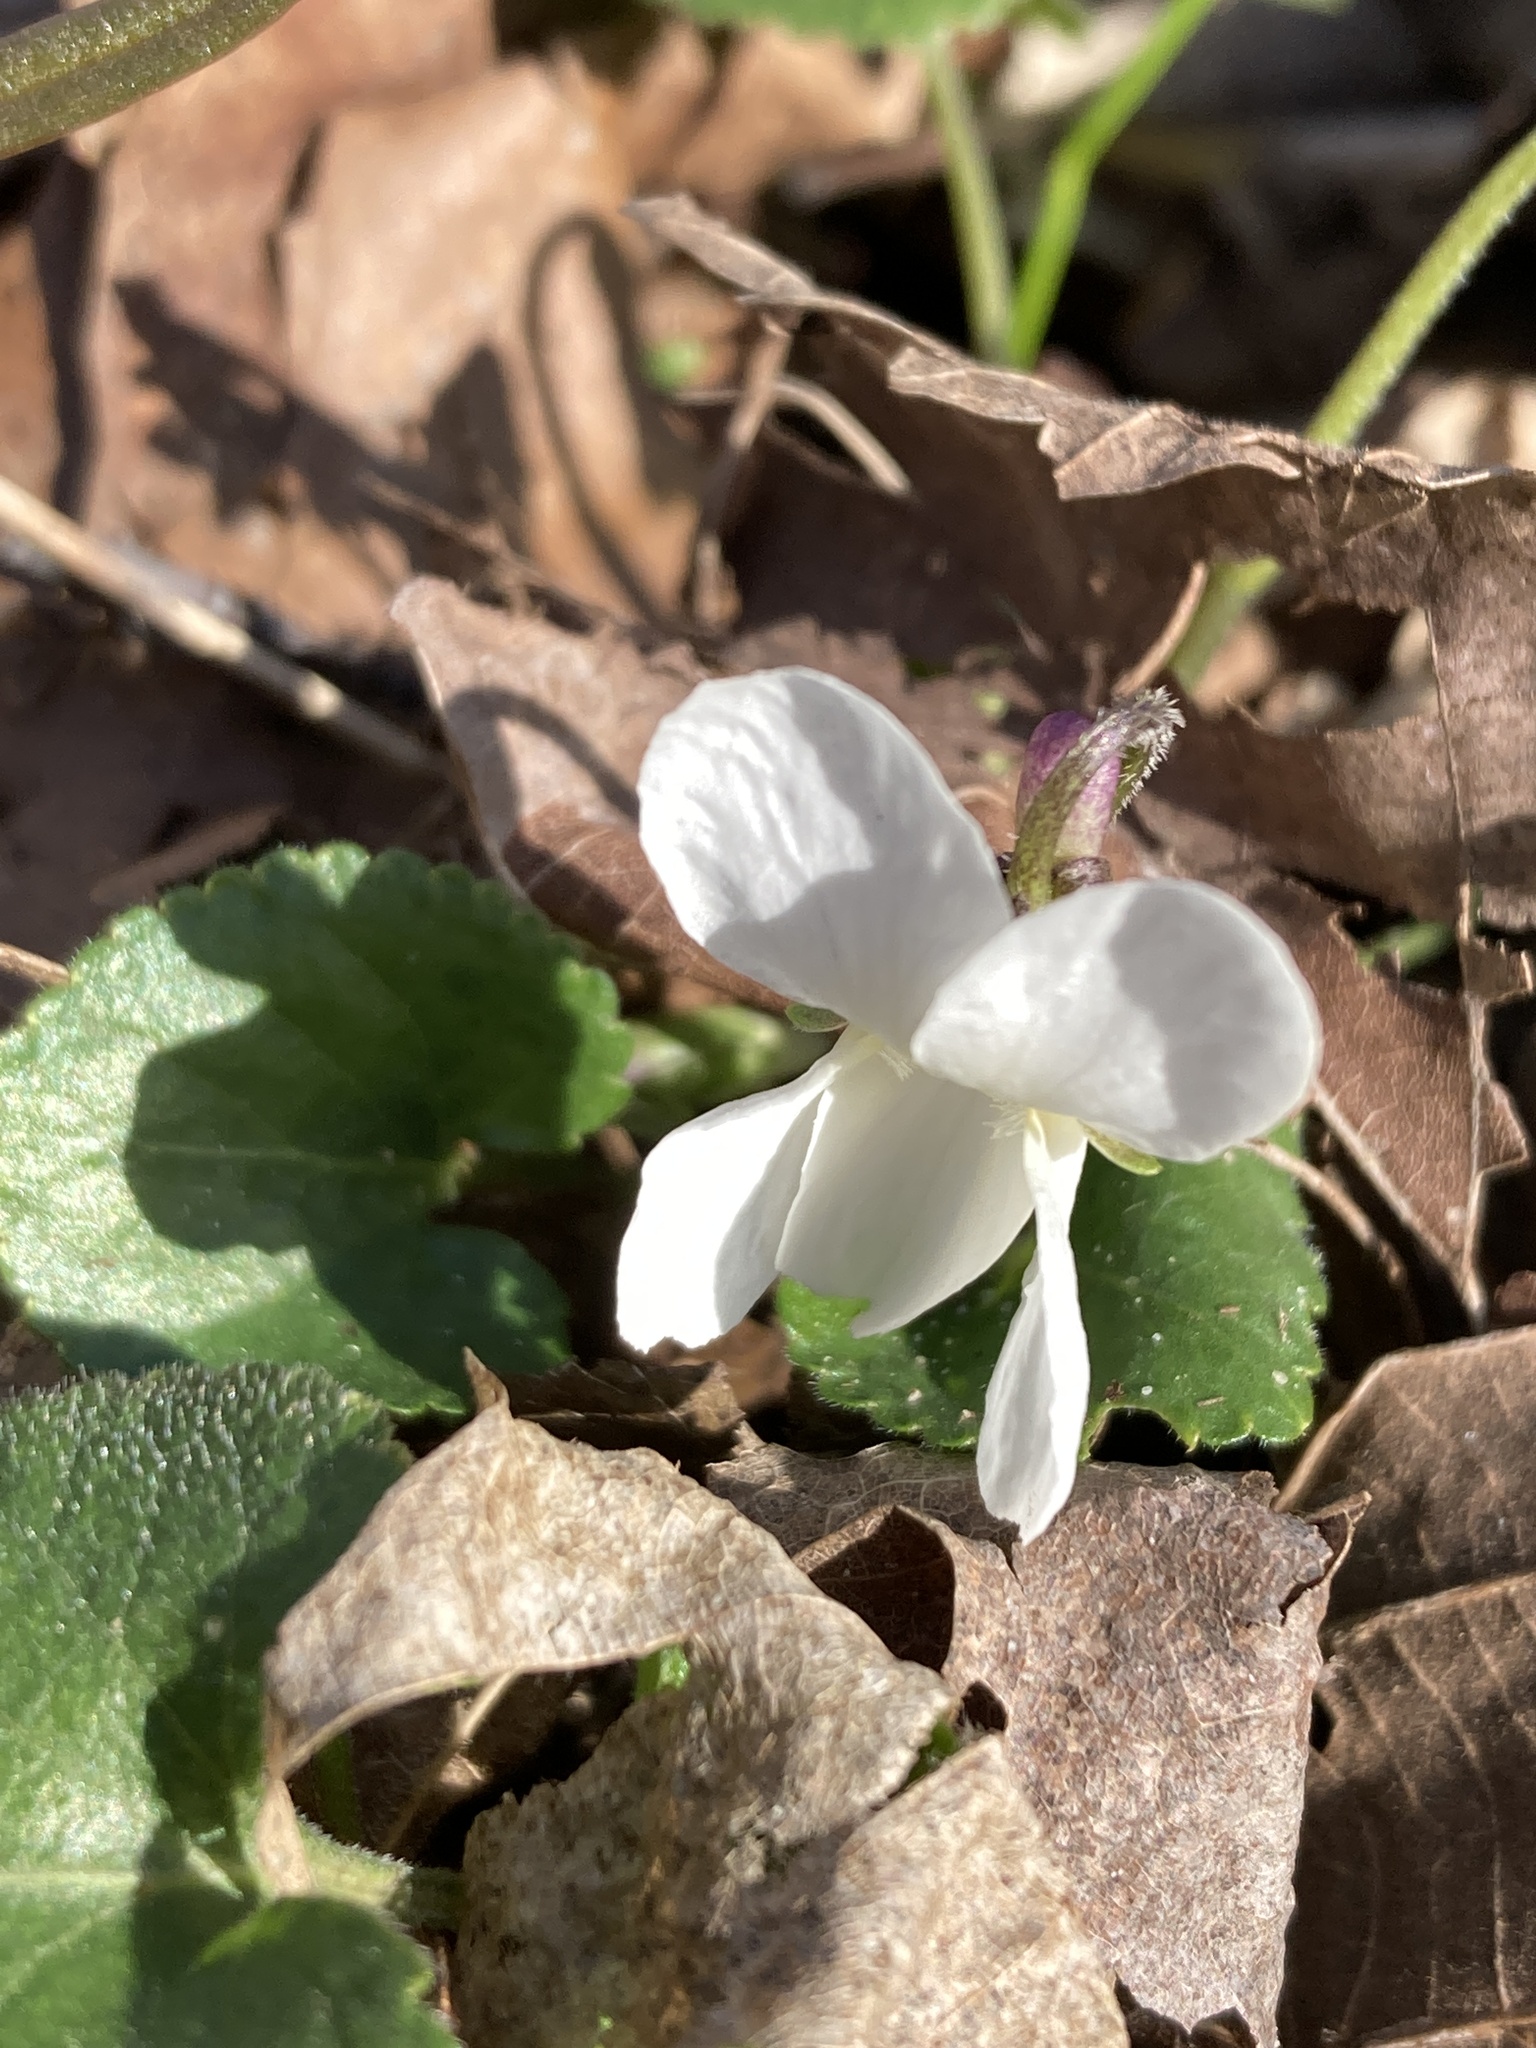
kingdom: Plantae
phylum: Tracheophyta
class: Magnoliopsida
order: Malpighiales
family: Violaceae
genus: Viola
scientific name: Viola odorata
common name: Sweet violet
